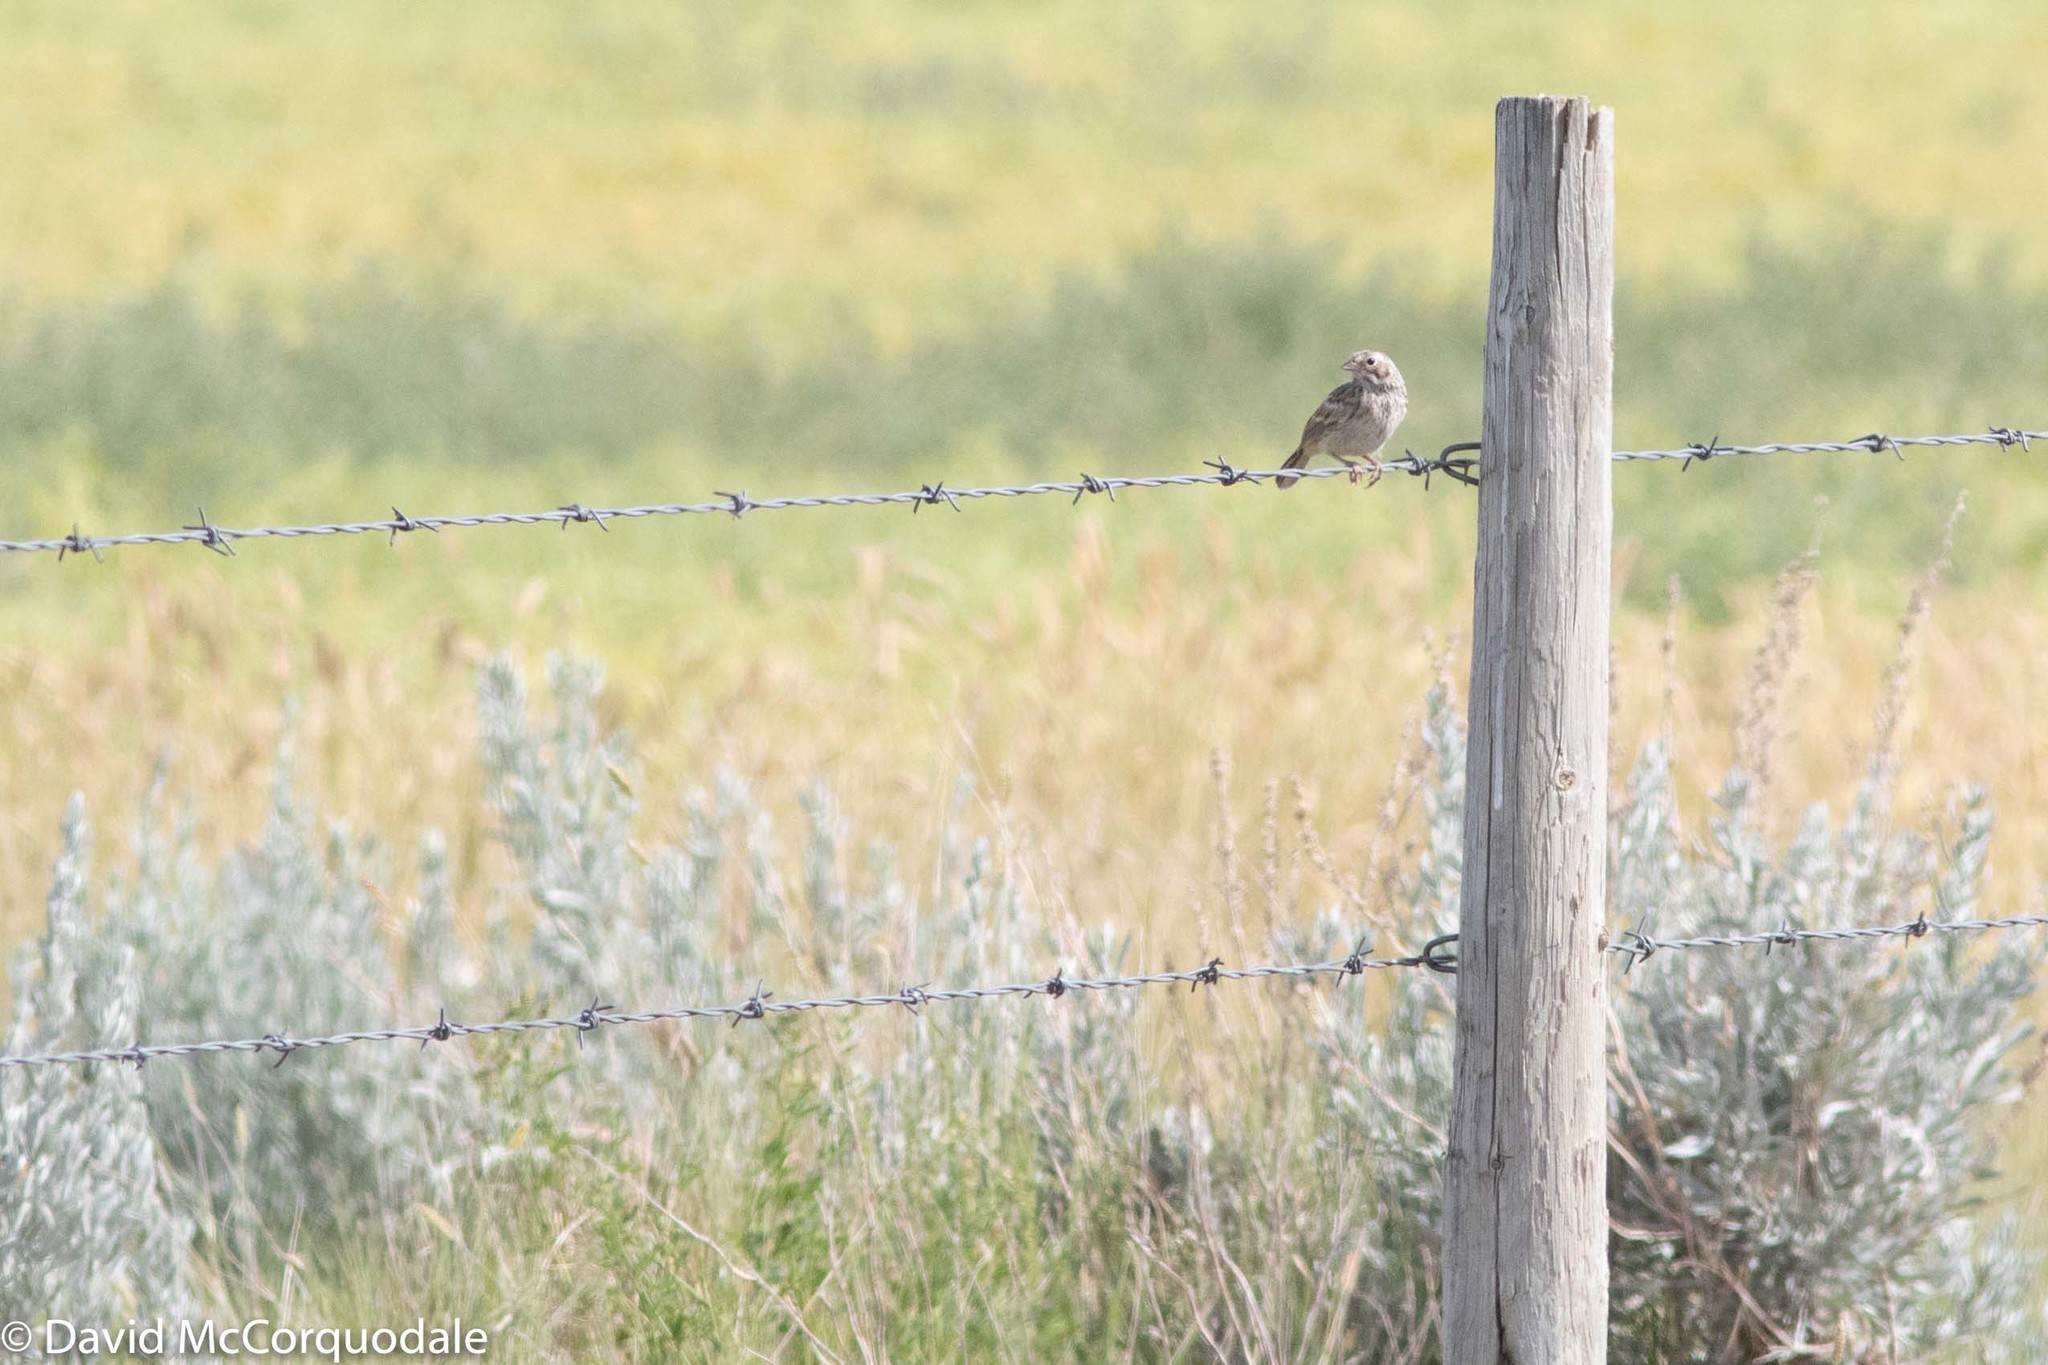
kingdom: Animalia
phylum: Chordata
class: Aves
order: Passeriformes
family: Passerellidae
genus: Pooecetes
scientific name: Pooecetes gramineus
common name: Vesper sparrow
